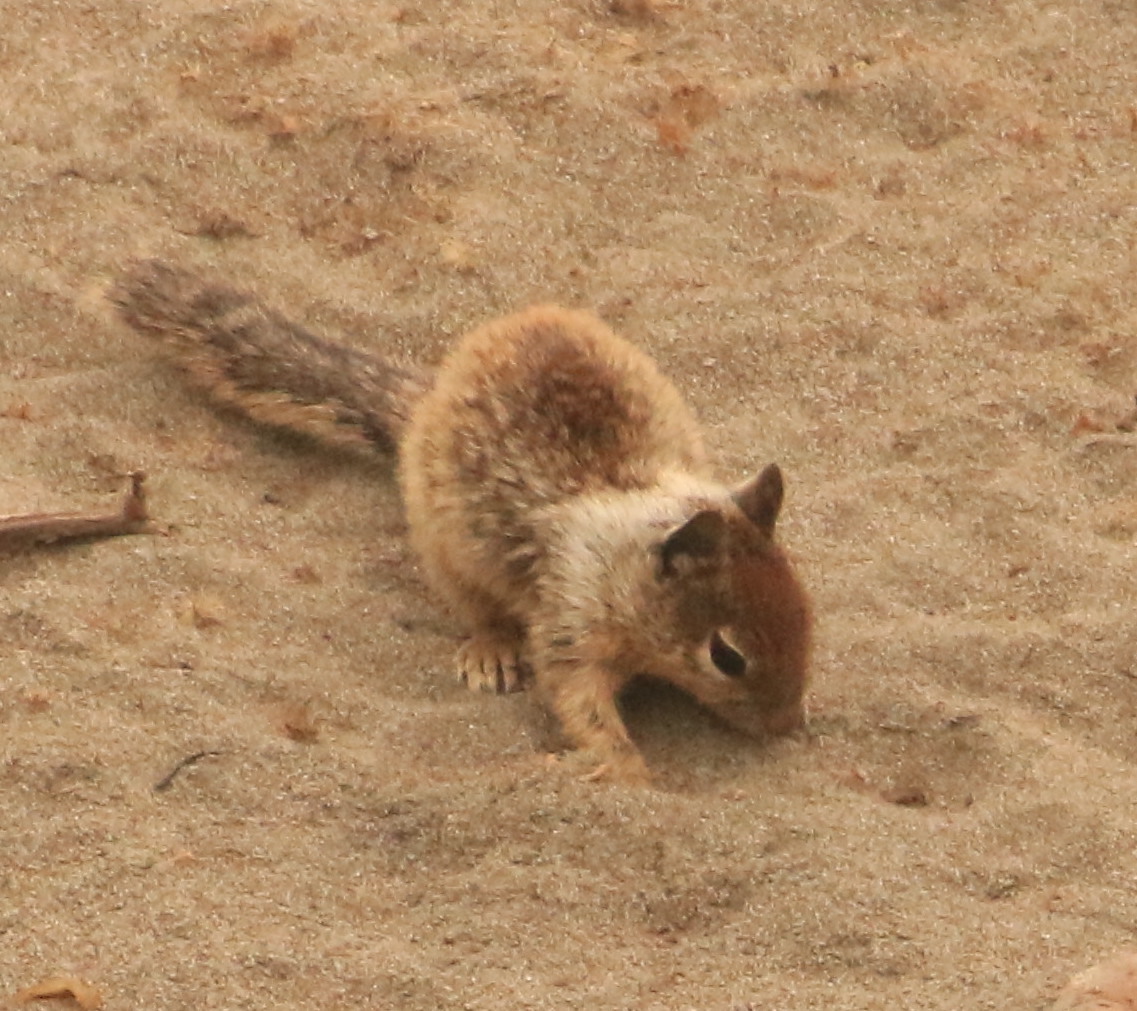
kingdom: Animalia
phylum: Chordata
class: Mammalia
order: Rodentia
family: Sciuridae
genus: Otospermophilus
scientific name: Otospermophilus beecheyi
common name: California ground squirrel
